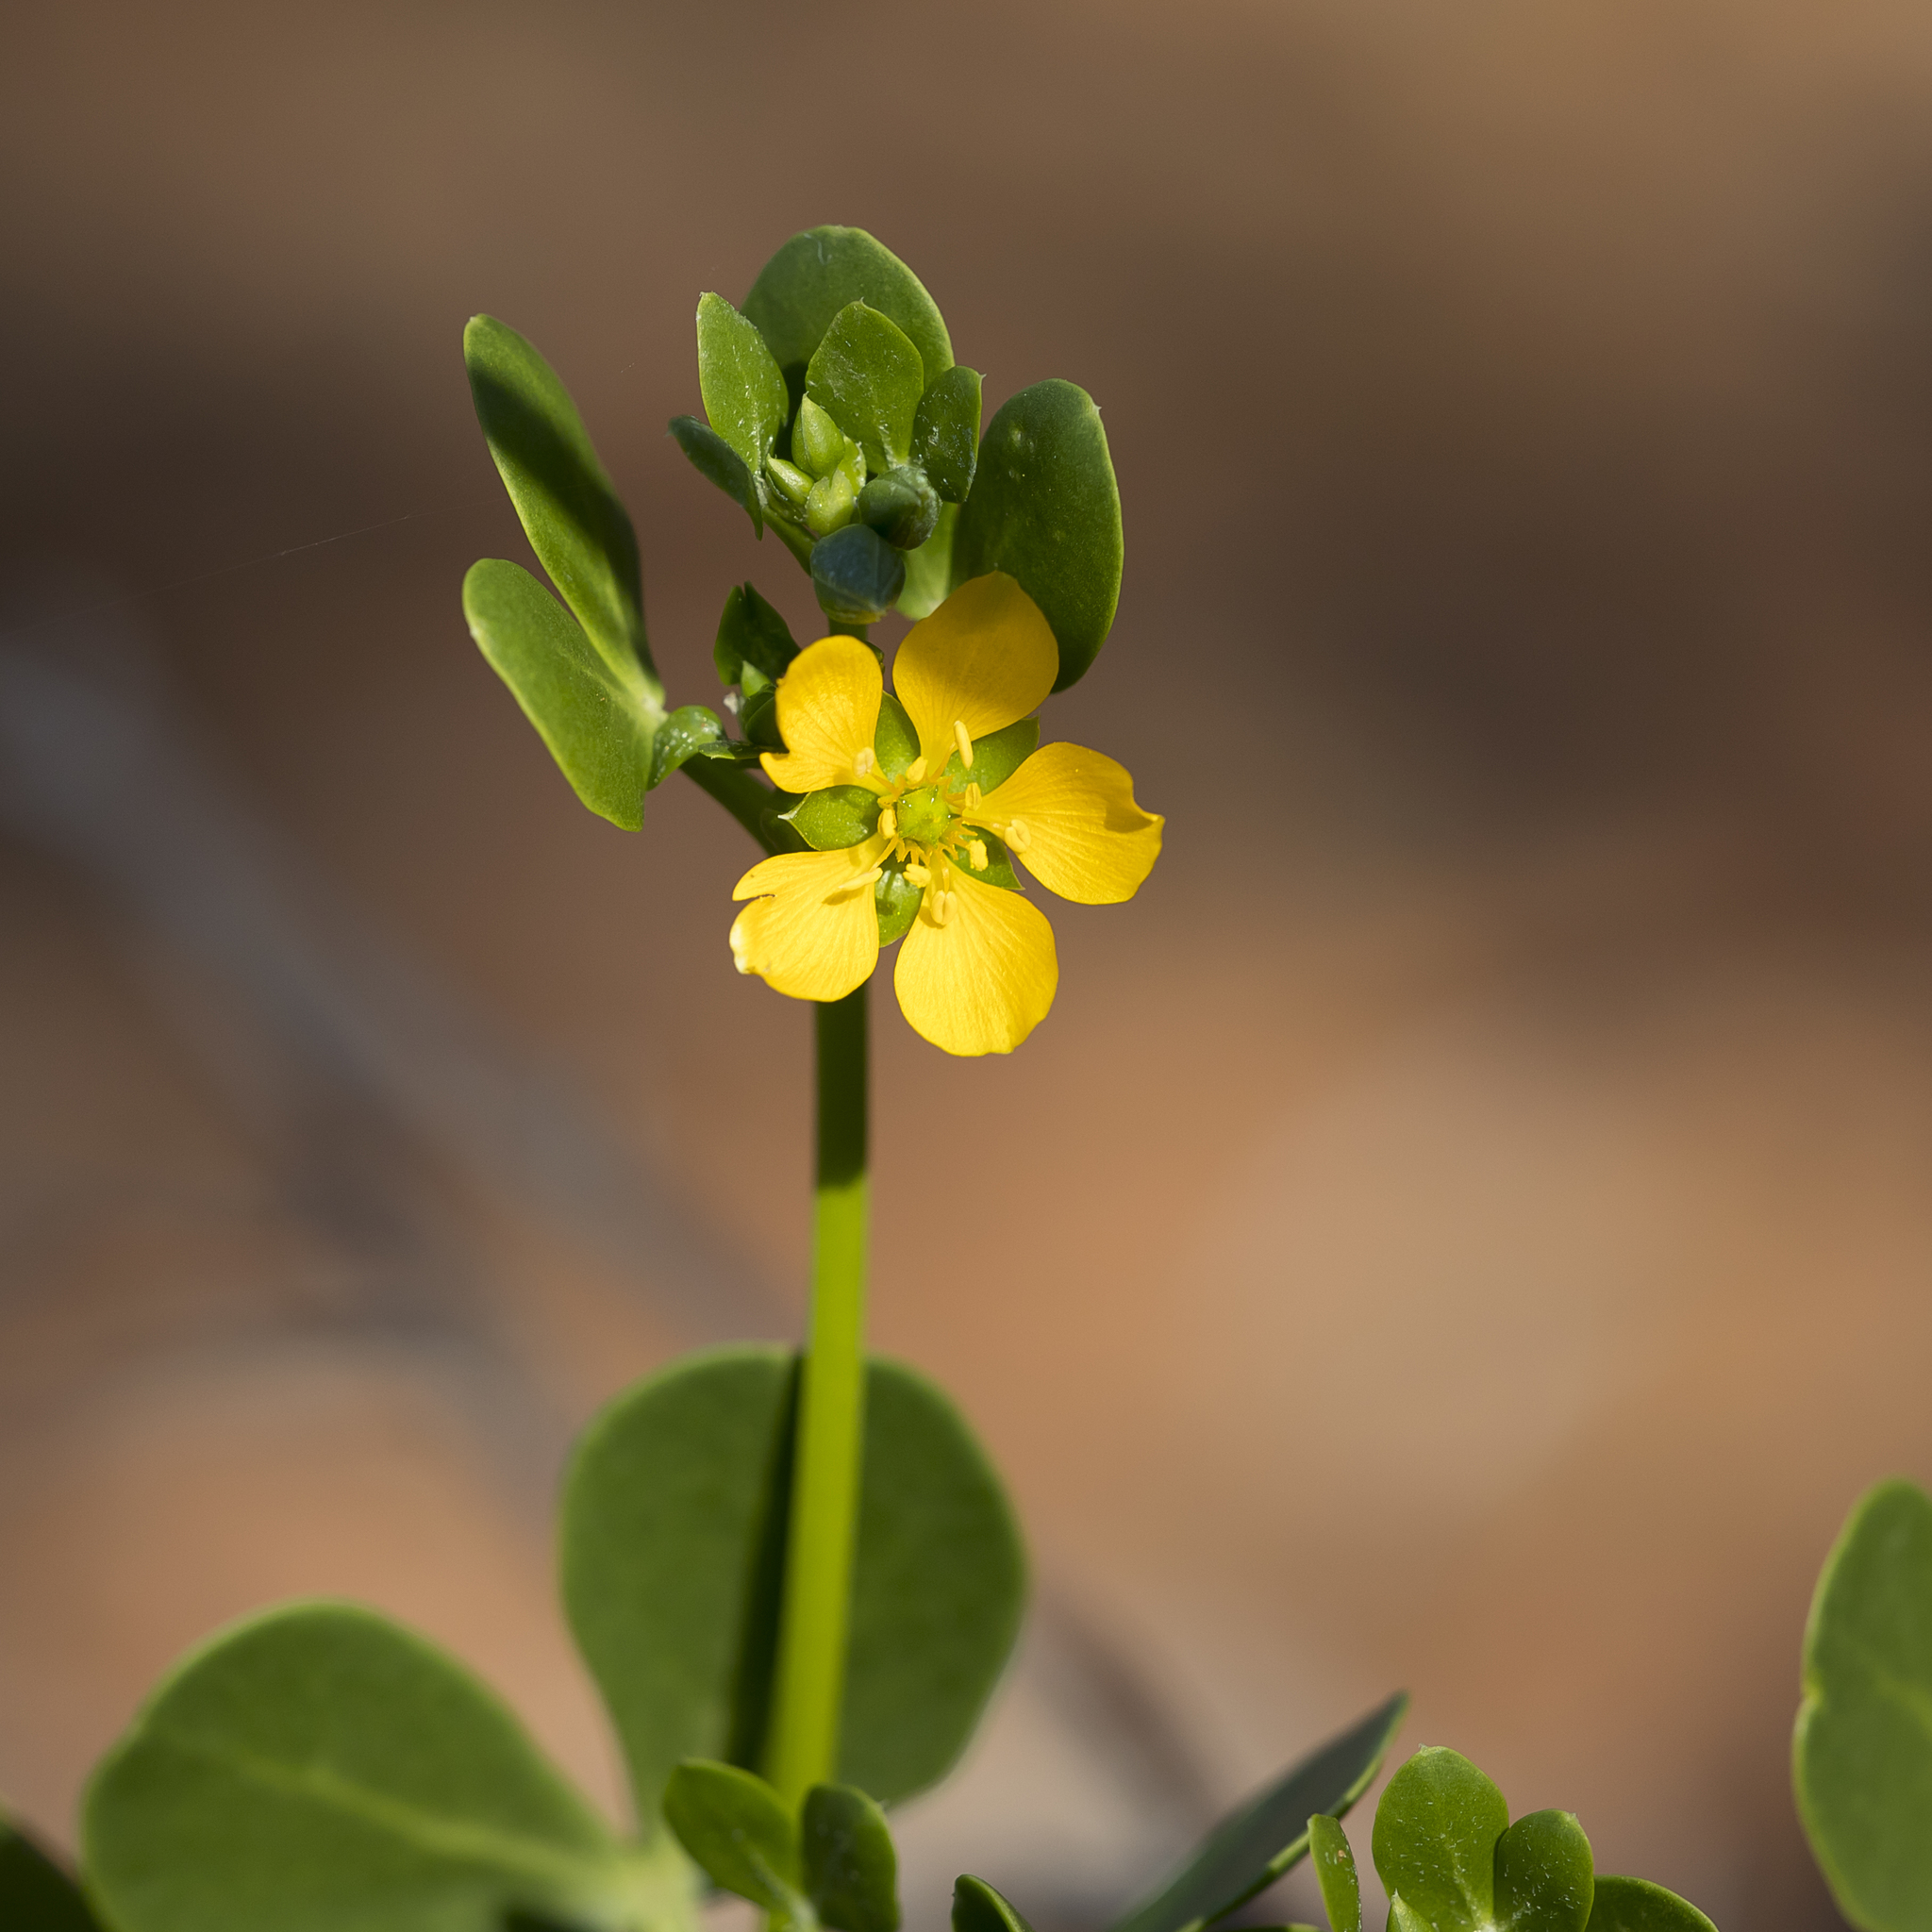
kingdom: Plantae
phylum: Tracheophyta
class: Magnoliopsida
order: Zygophyllales
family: Zygophyllaceae
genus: Roepera
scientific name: Roepera apiculata
